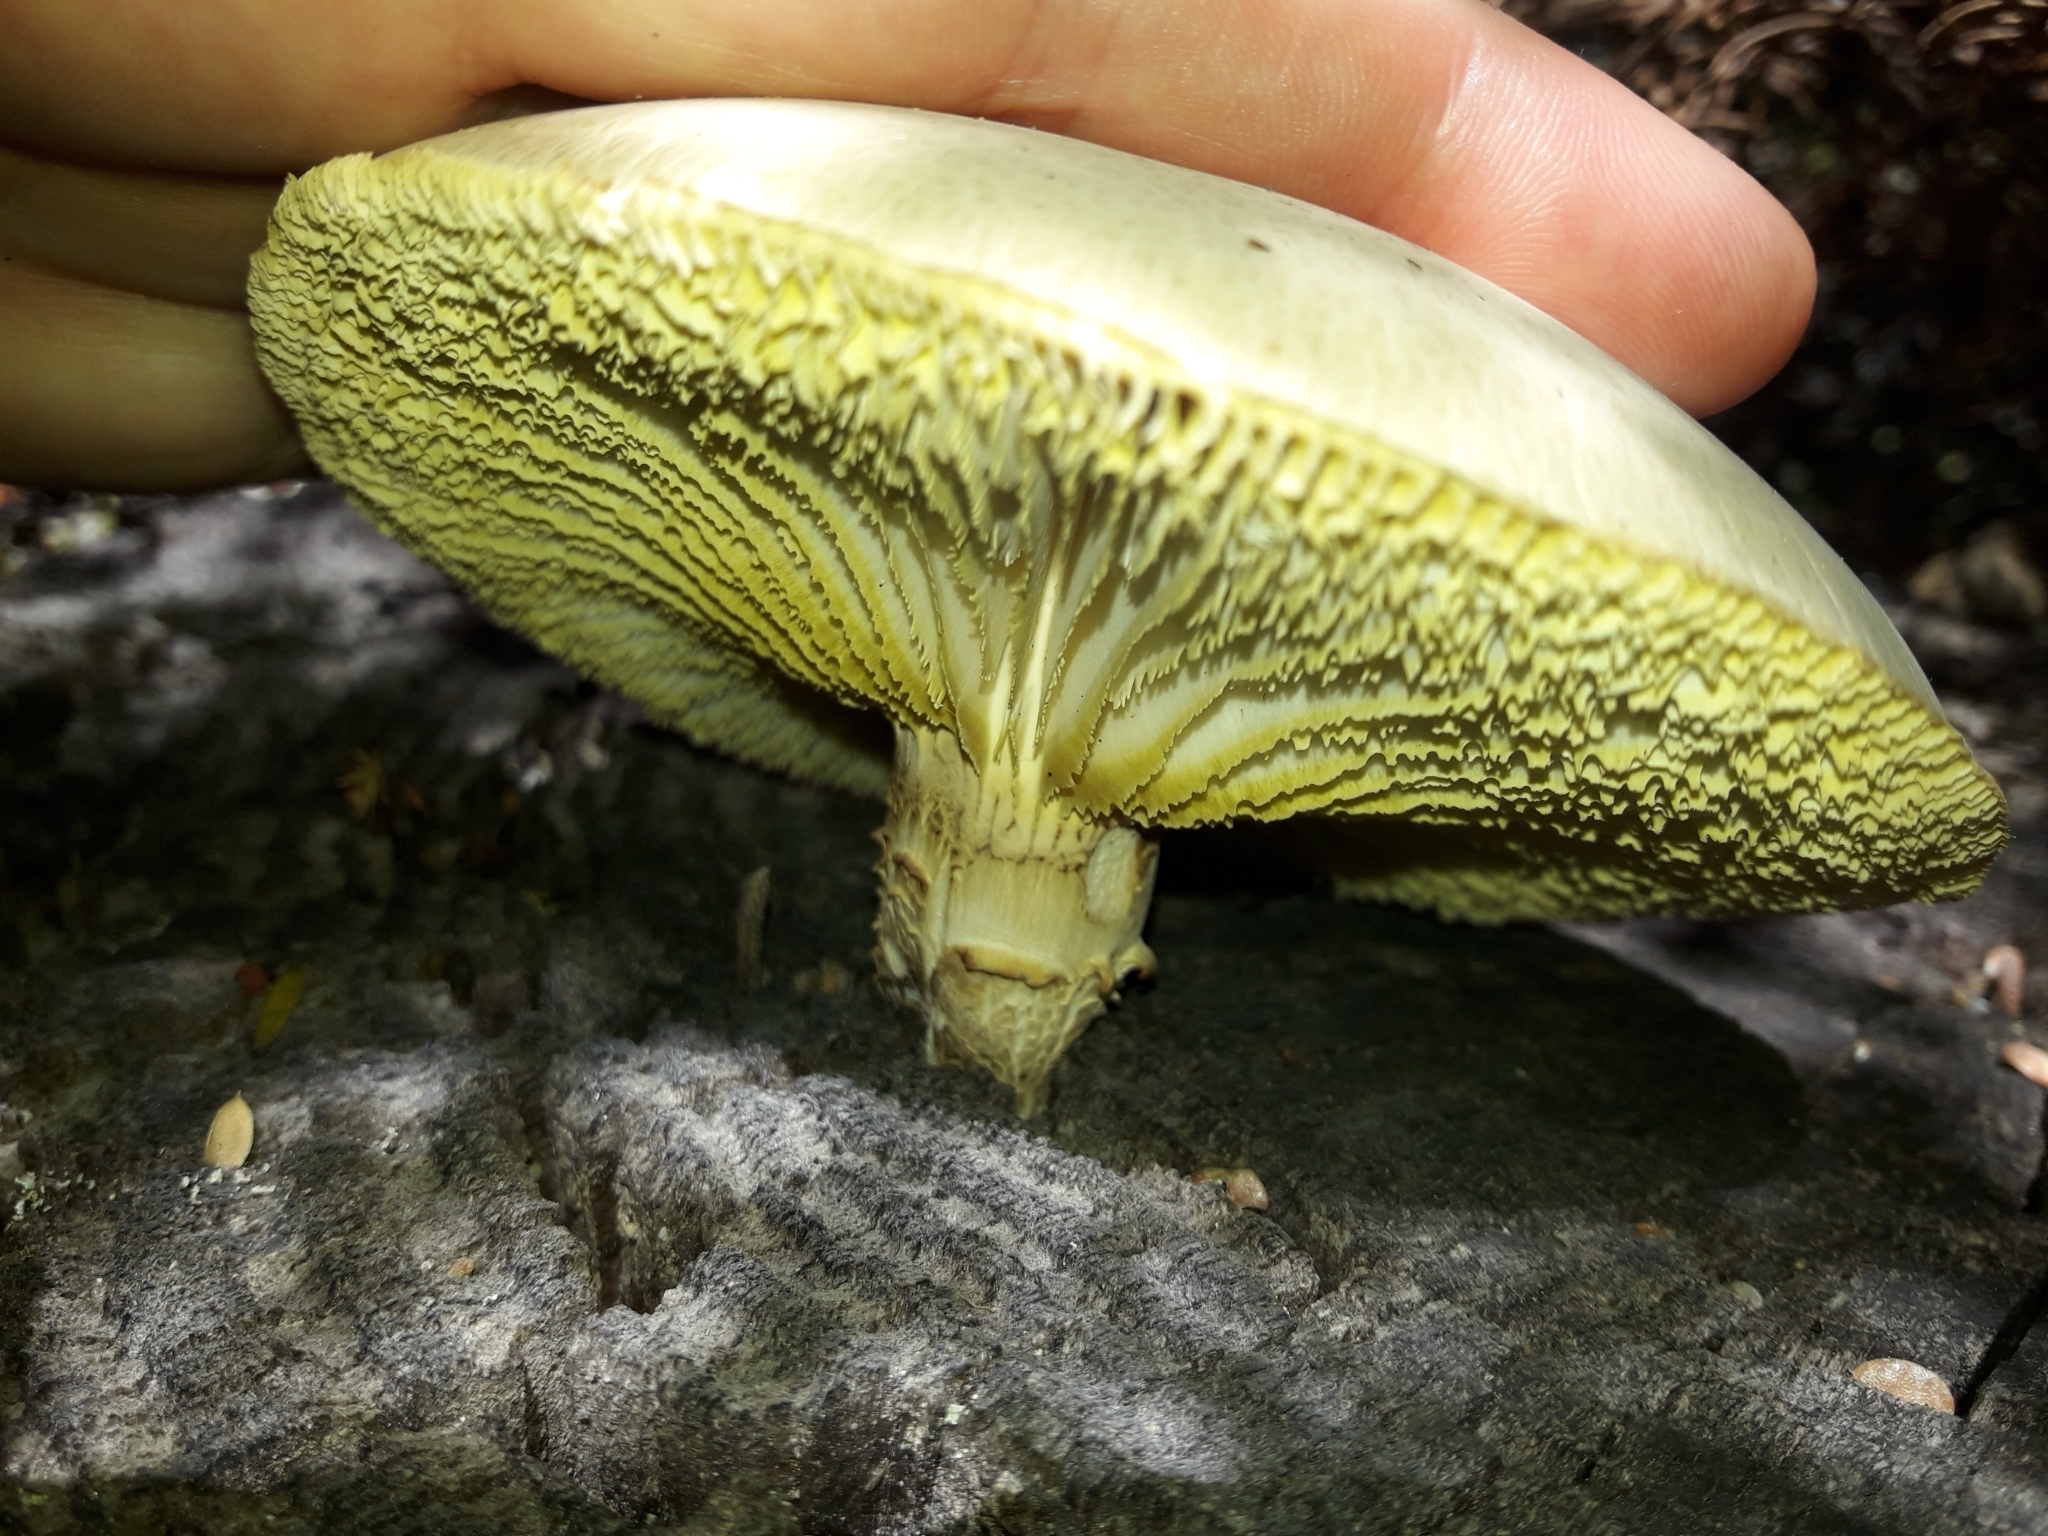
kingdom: Fungi
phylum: Basidiomycota
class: Agaricomycetes
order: Gloeophyllales
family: Gloeophyllaceae
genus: Neolentinus
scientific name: Neolentinus lepideus
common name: Scaly sawgill
